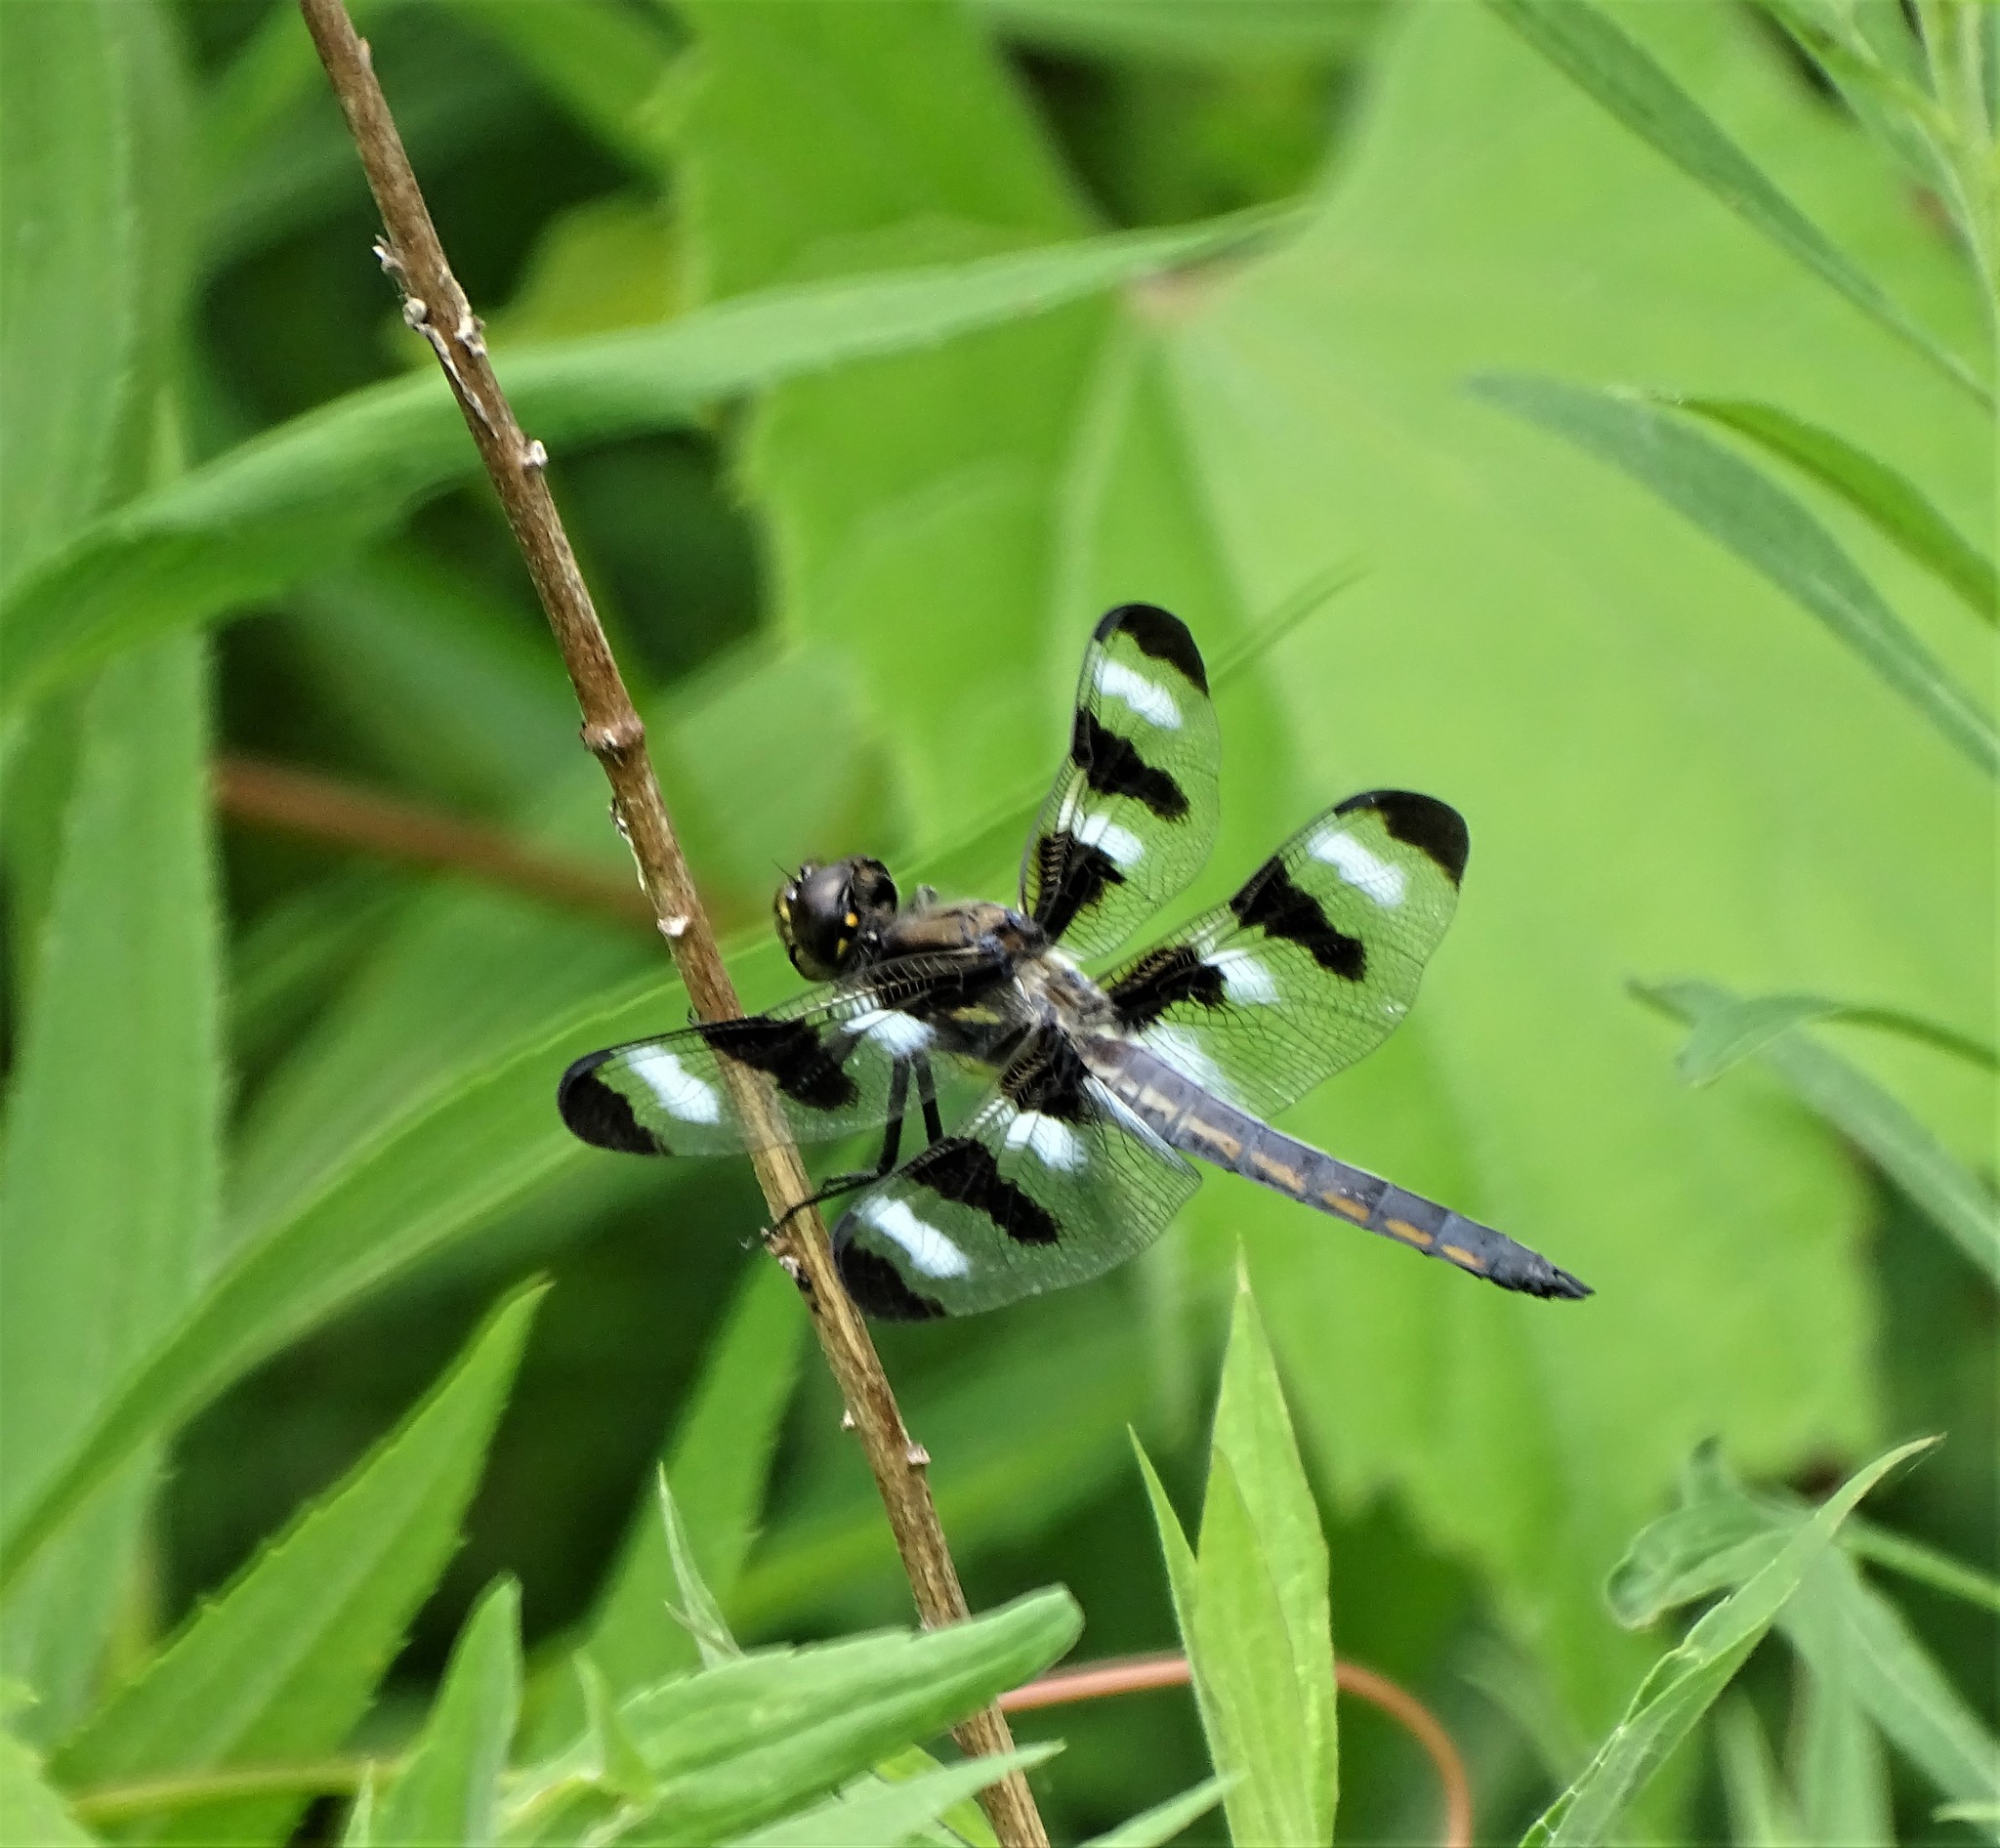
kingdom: Animalia
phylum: Arthropoda
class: Insecta
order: Odonata
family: Libellulidae
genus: Libellula
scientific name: Libellula pulchella
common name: Twelve-spotted skimmer
